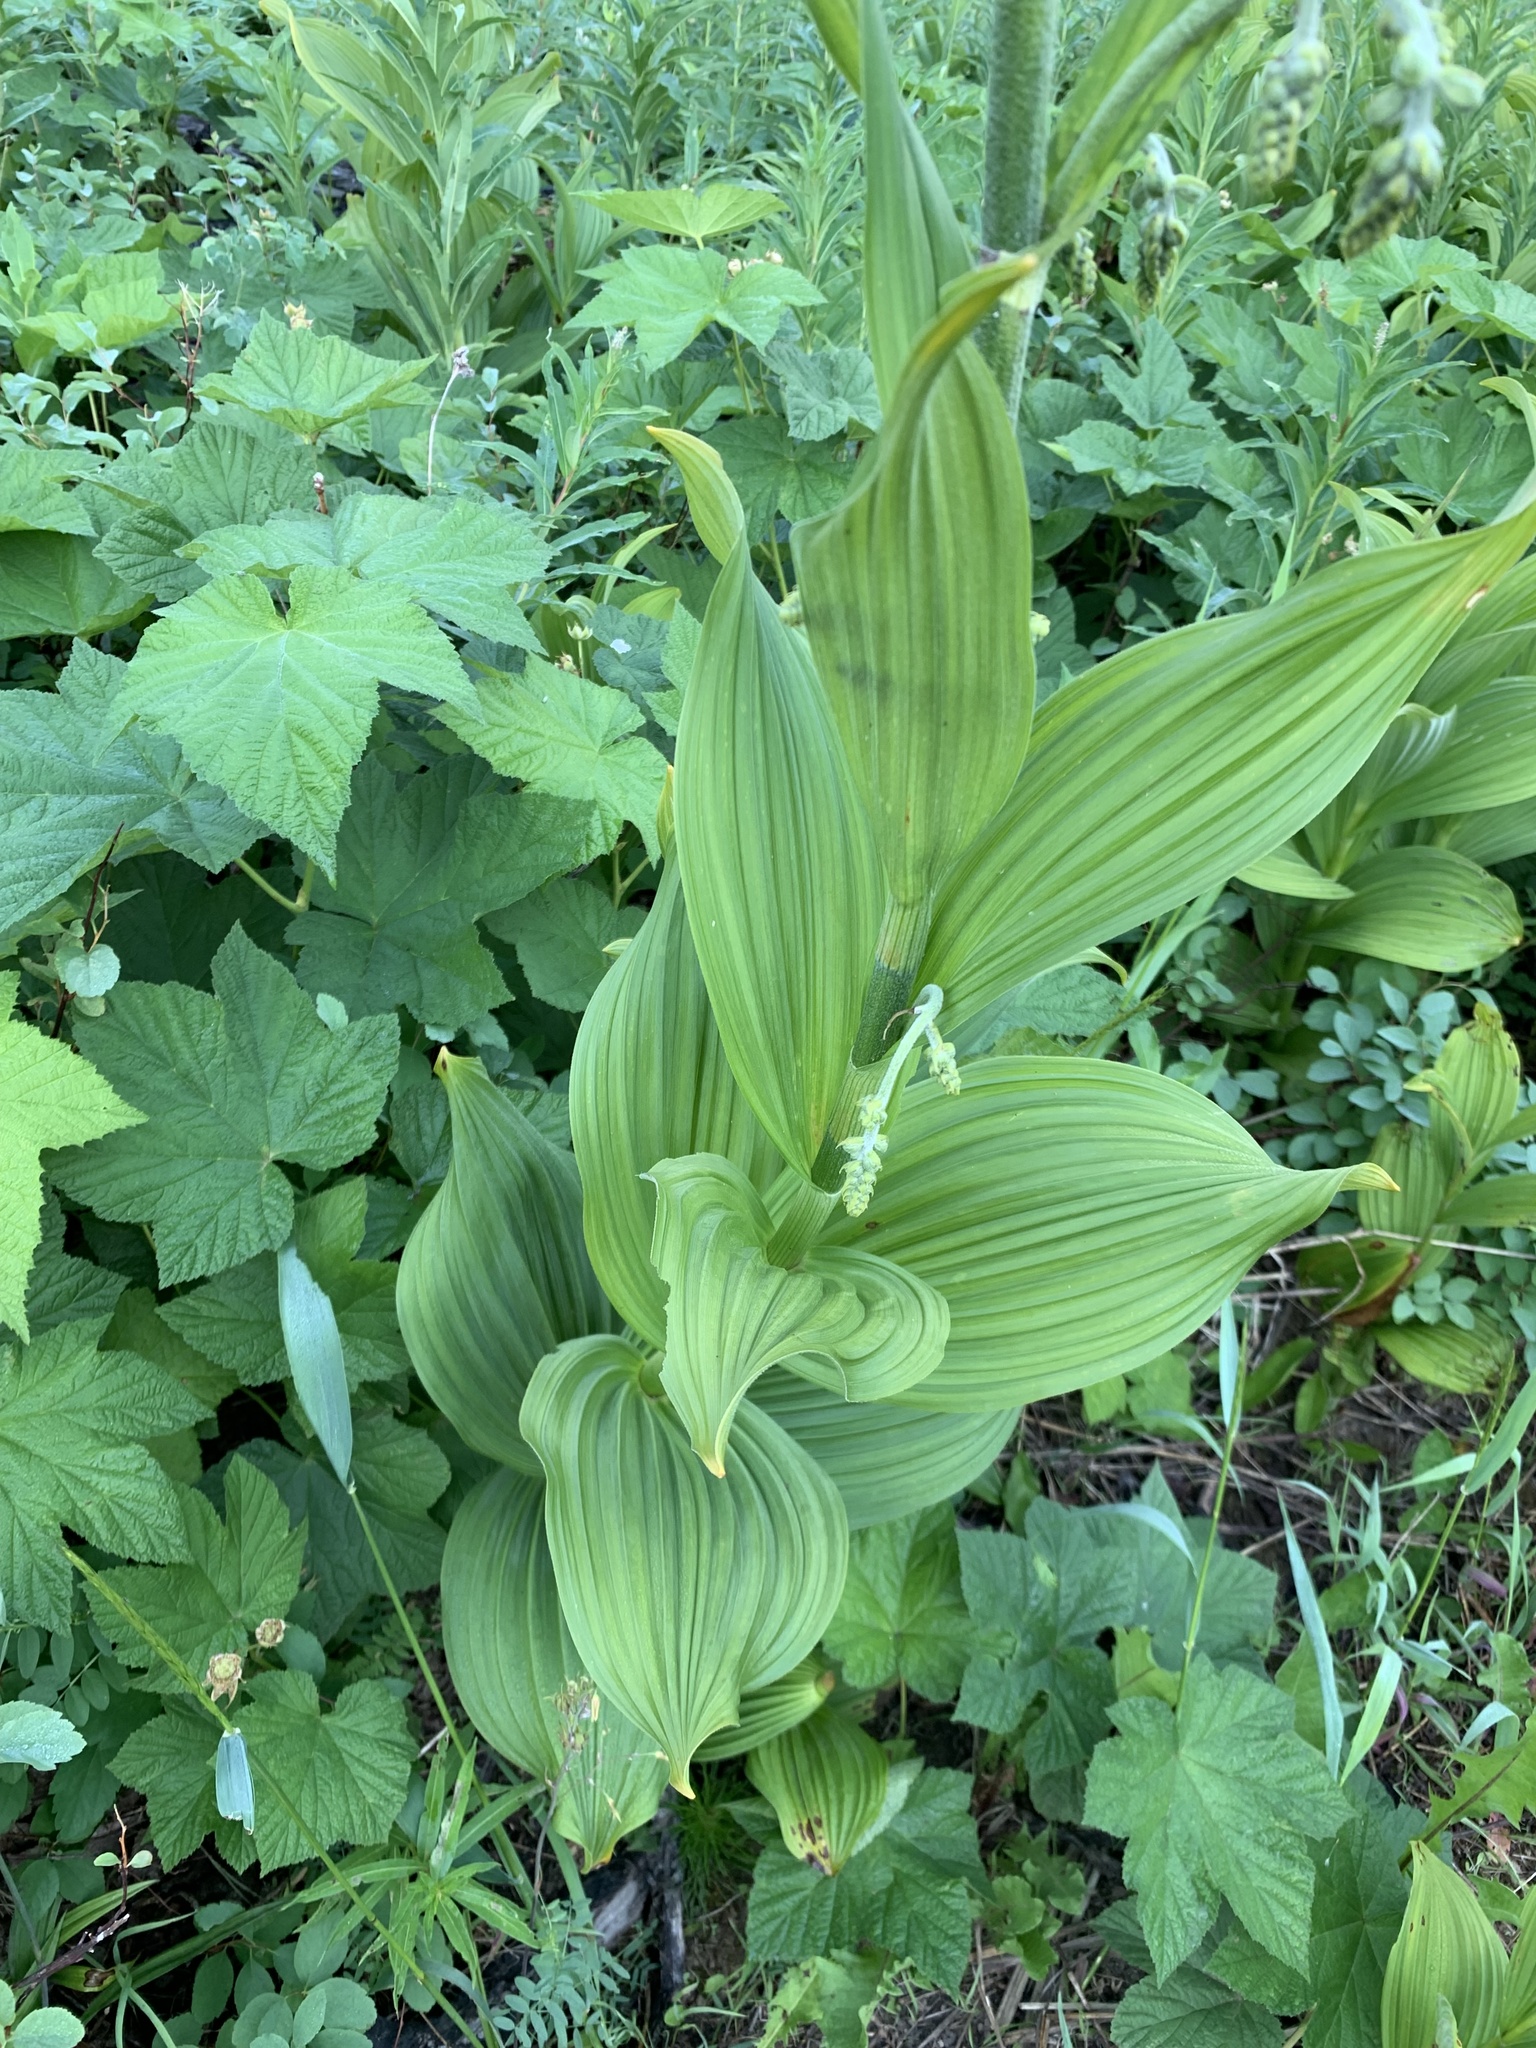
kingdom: Plantae
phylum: Tracheophyta
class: Liliopsida
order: Liliales
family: Melanthiaceae
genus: Veratrum
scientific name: Veratrum viride
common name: American false hellebore
